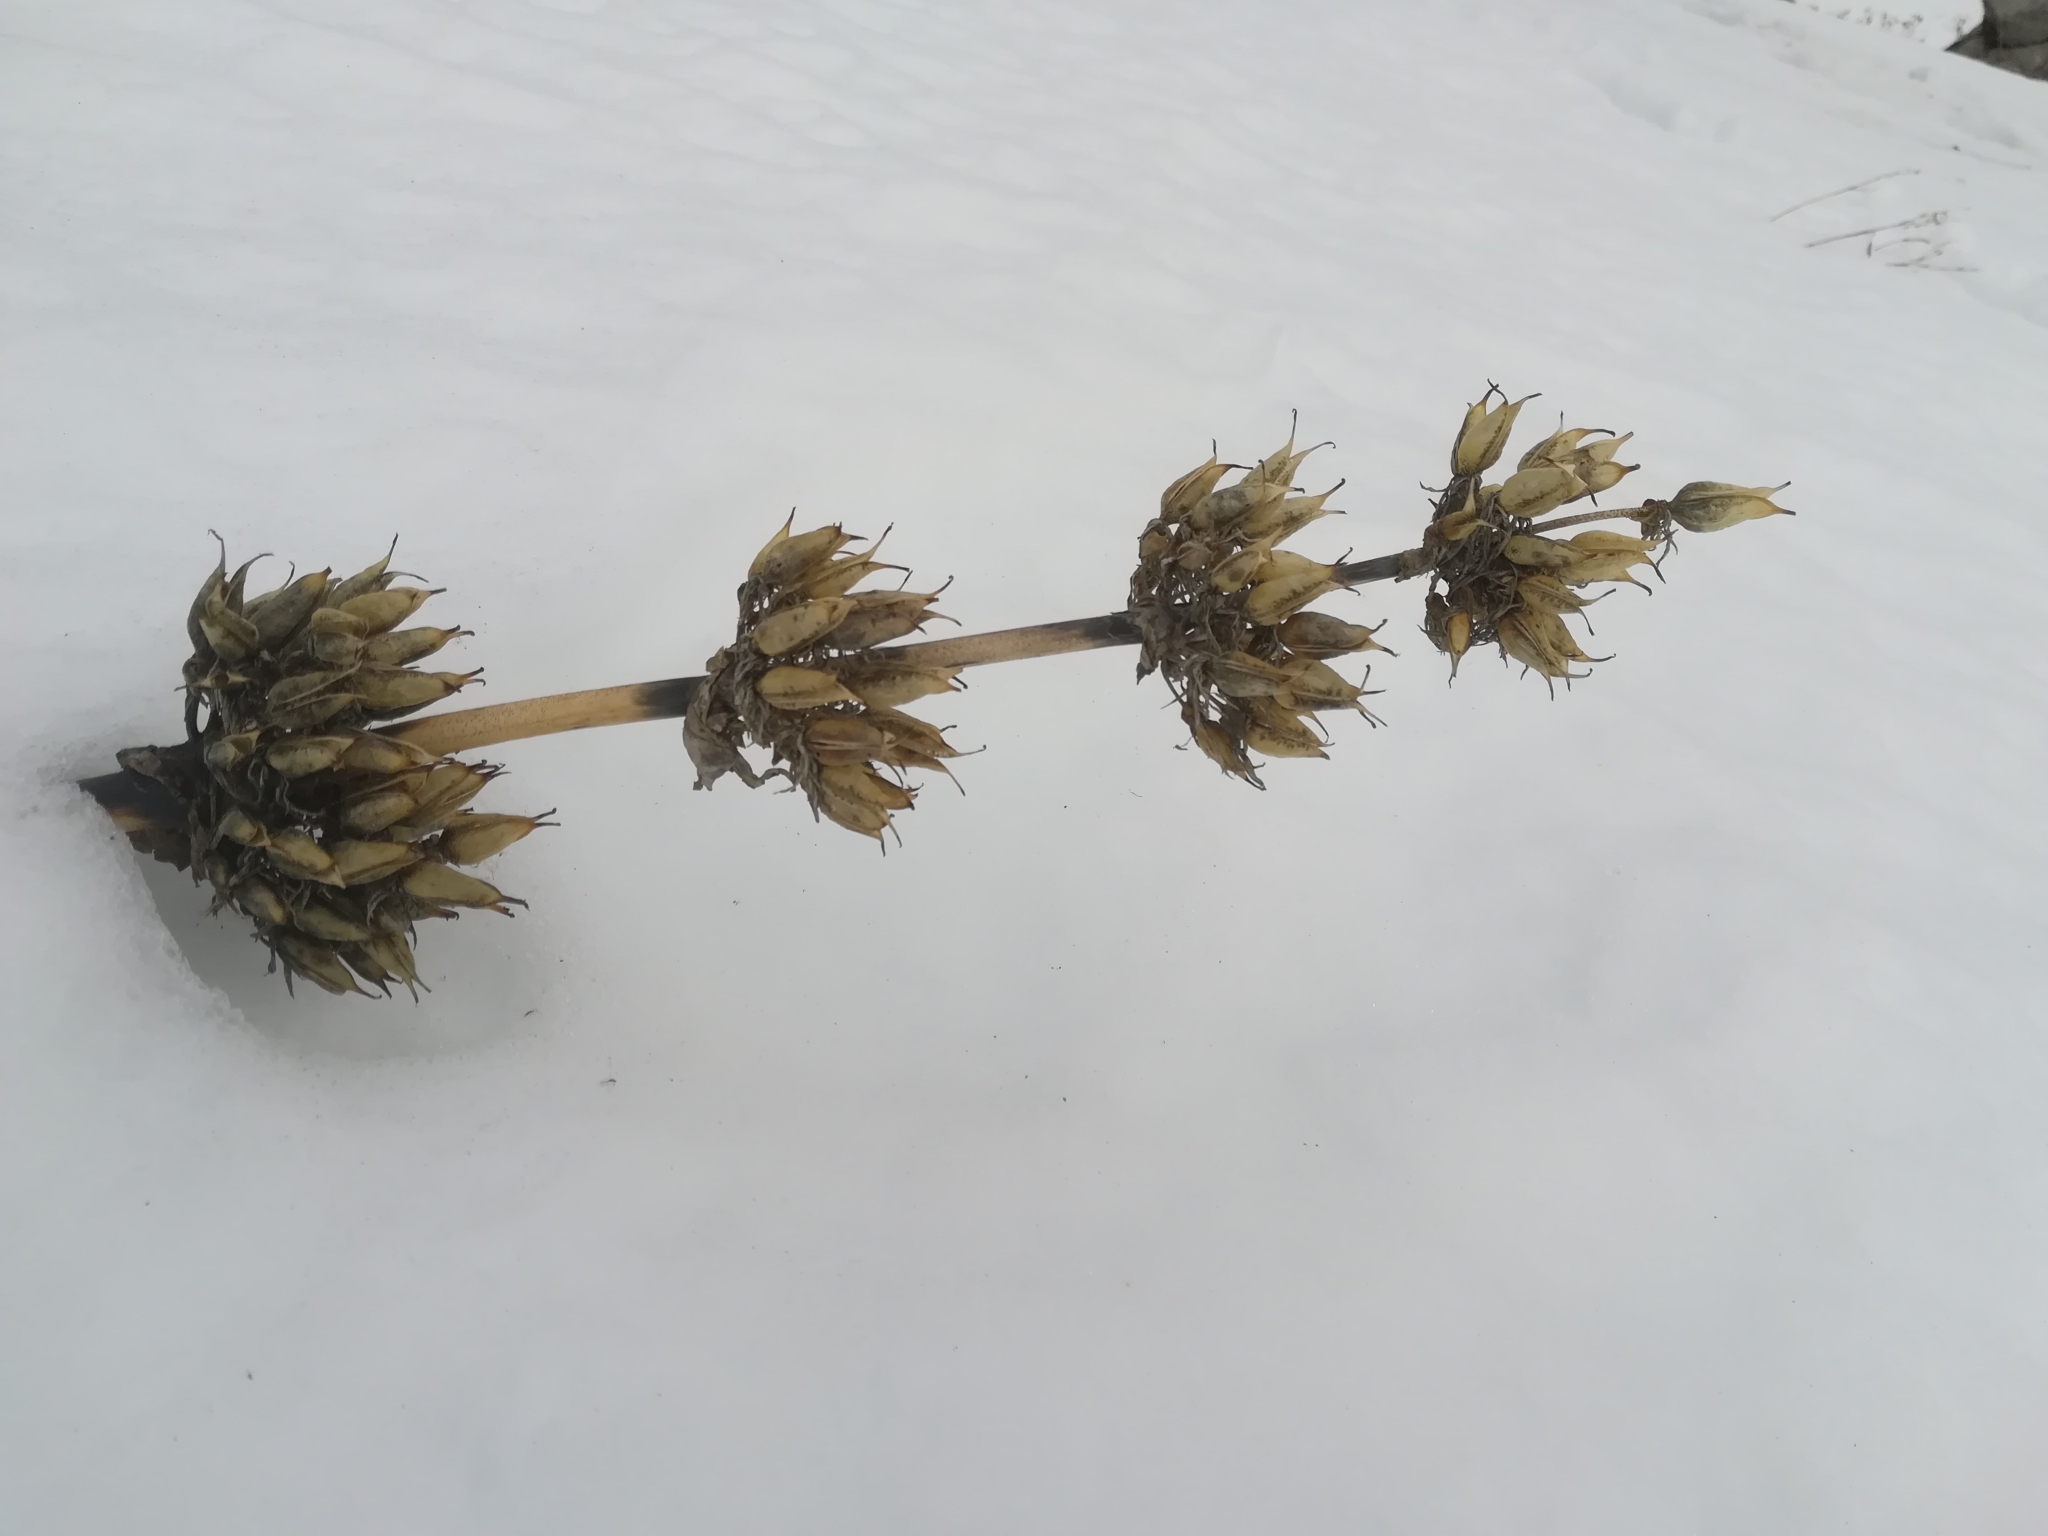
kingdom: Plantae
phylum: Tracheophyta
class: Magnoliopsida
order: Gentianales
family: Gentianaceae
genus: Gentiana
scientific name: Gentiana lutea
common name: Great yellow gentian
